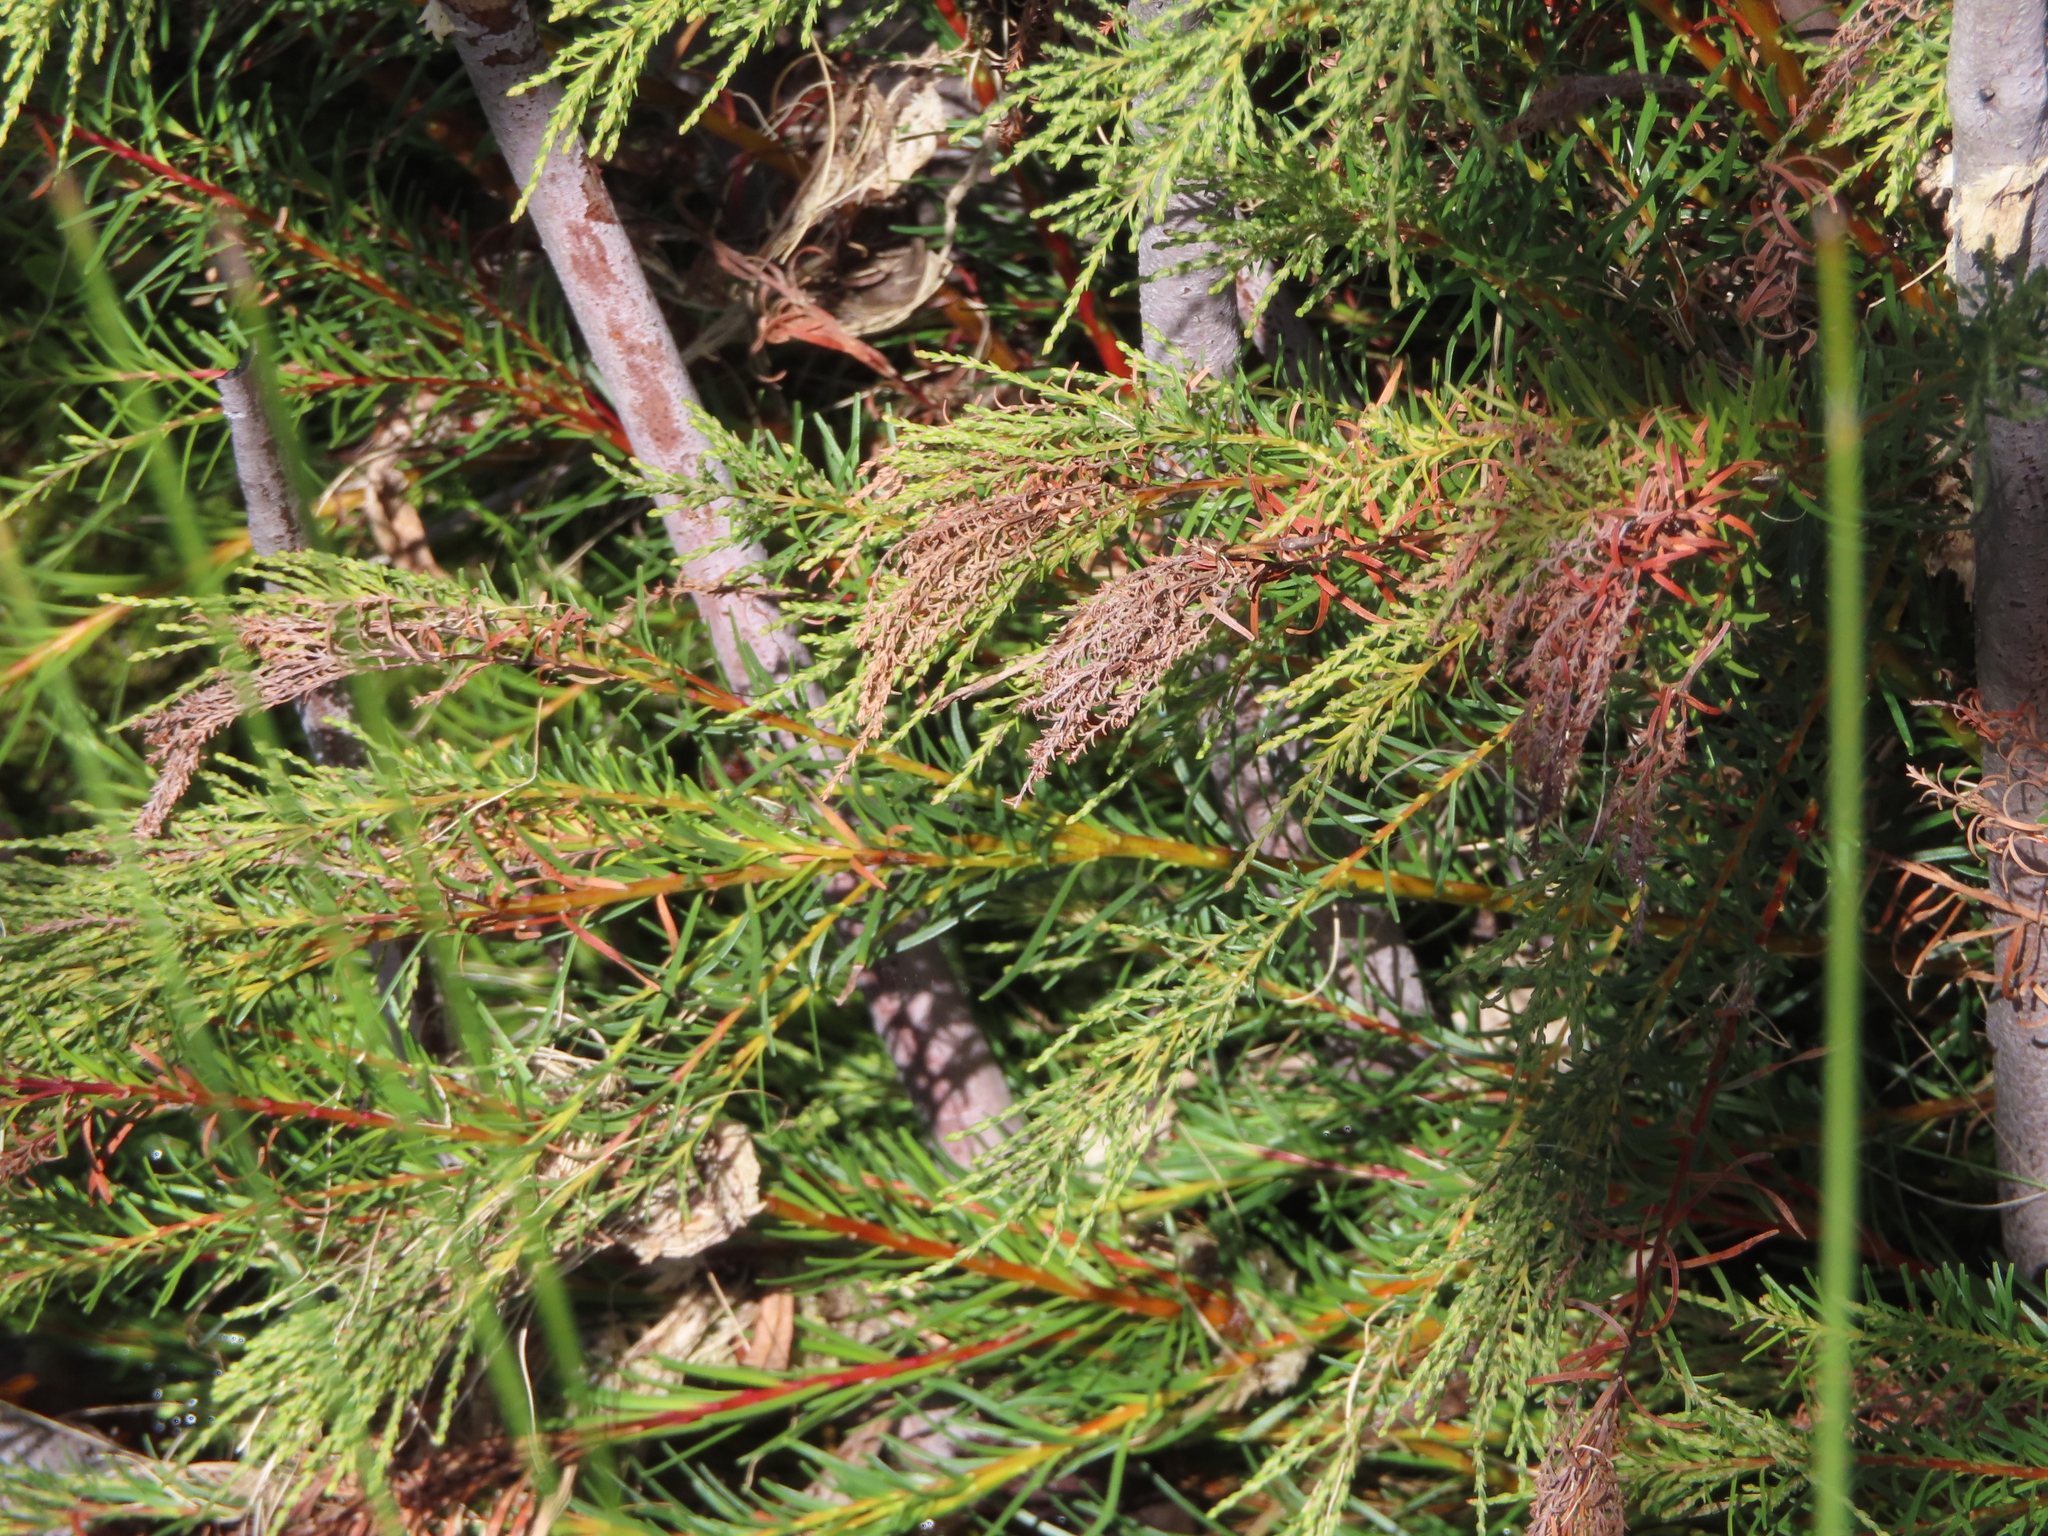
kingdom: Plantae
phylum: Tracheophyta
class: Magnoliopsida
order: Bruniales
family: Bruniaceae
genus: Brunia
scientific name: Brunia africana
